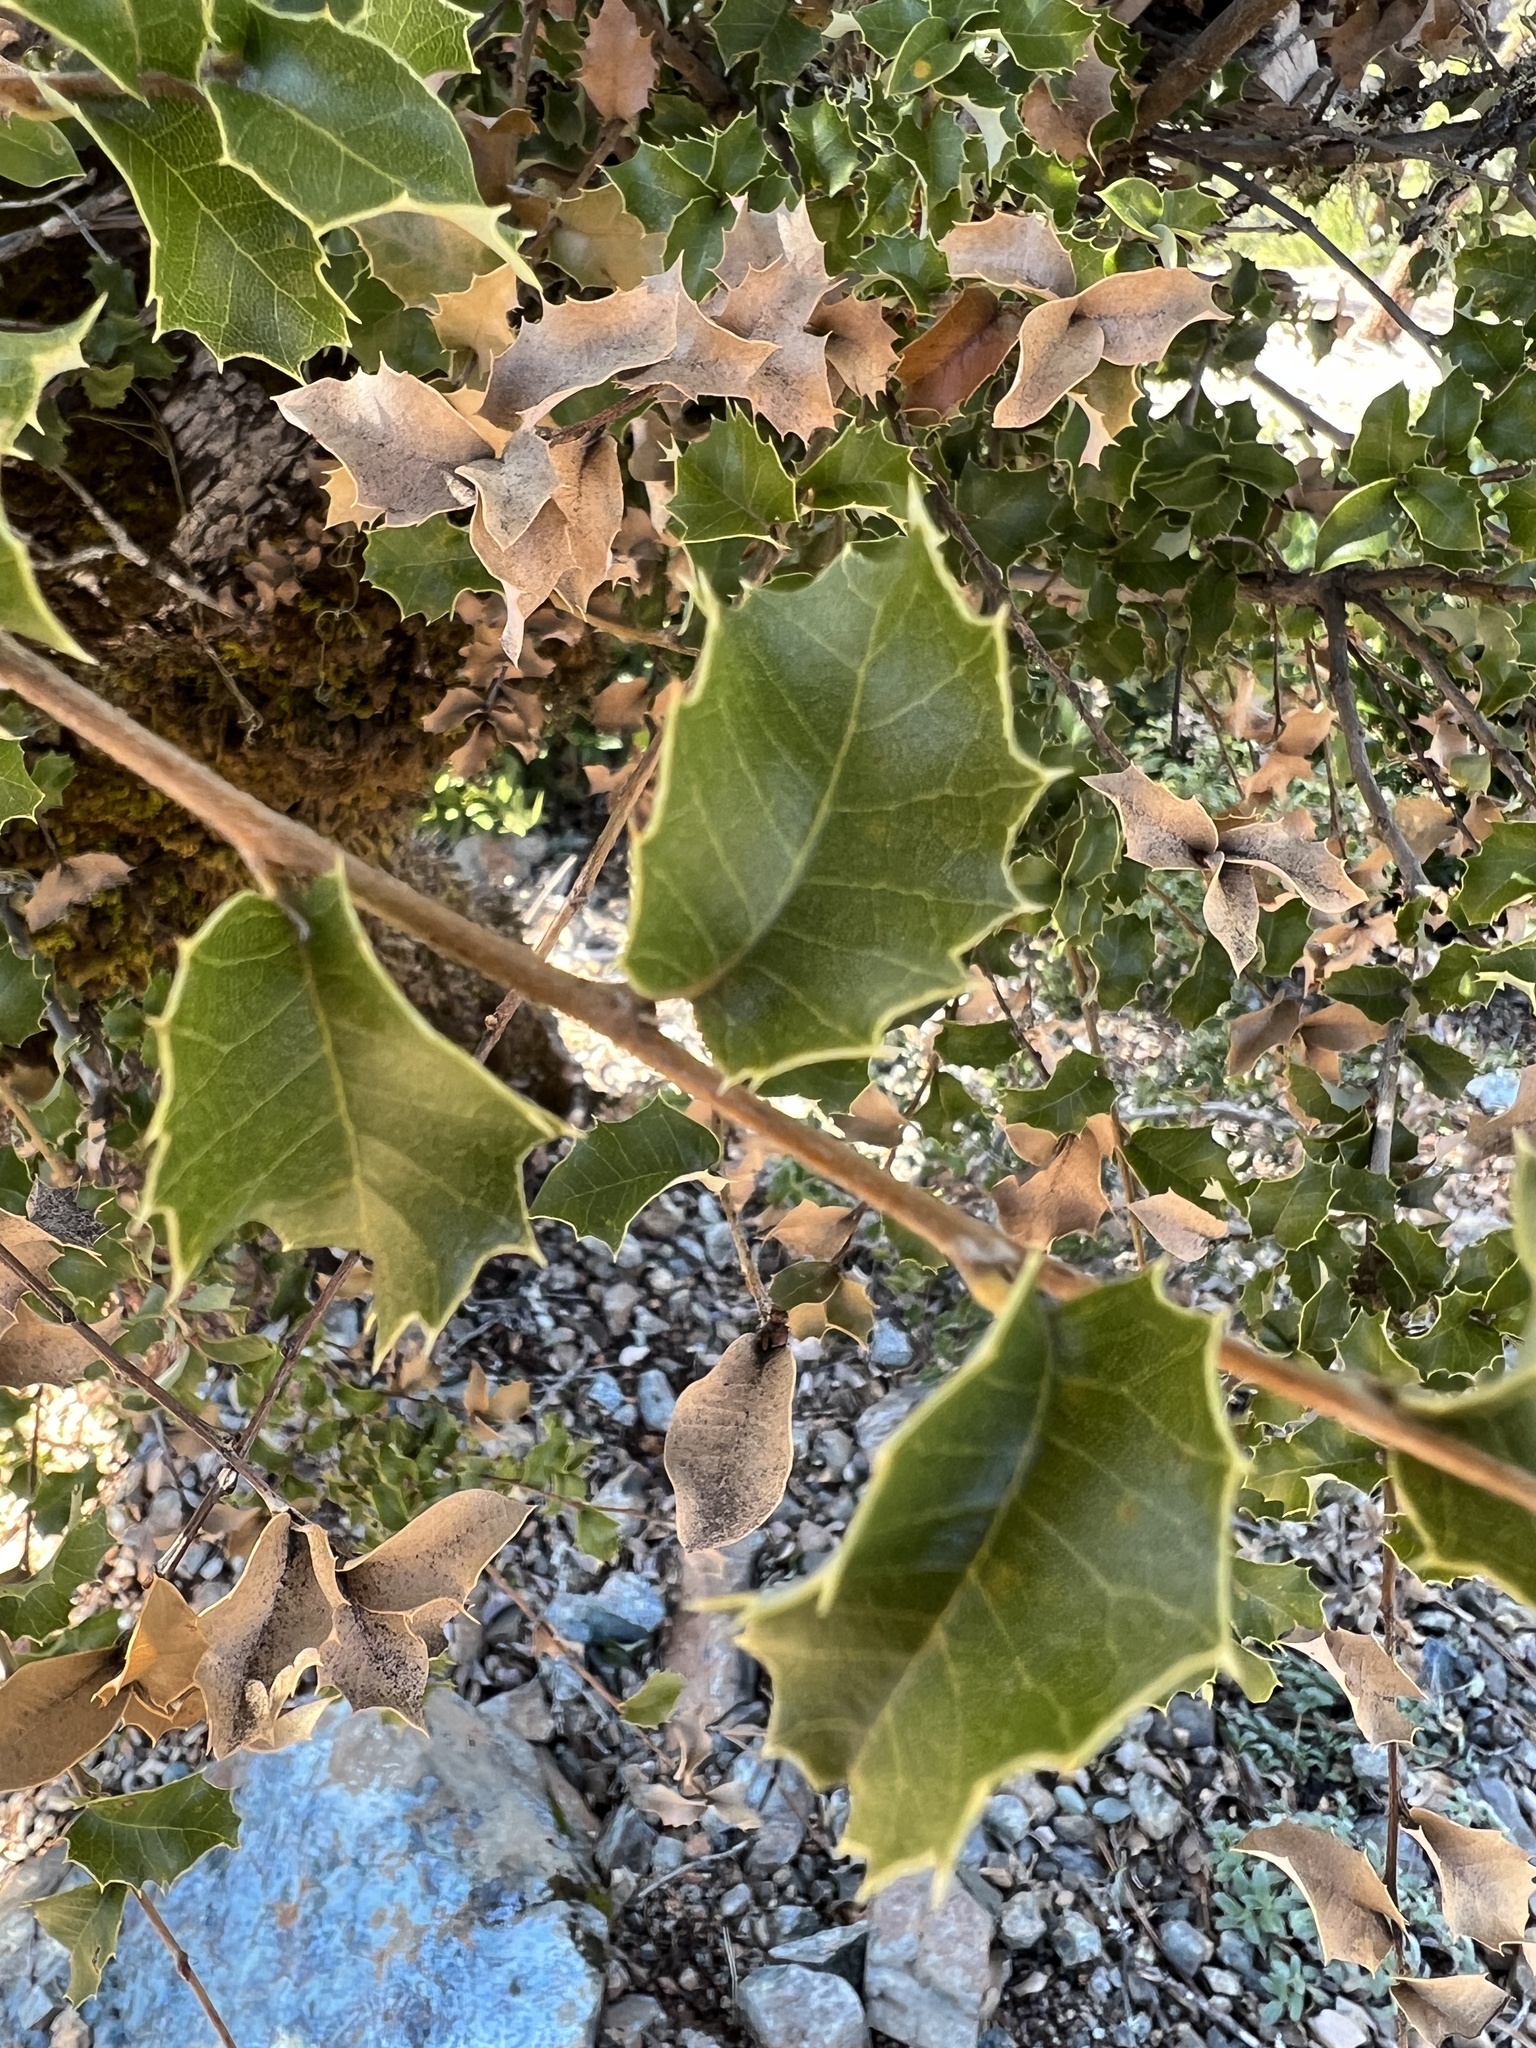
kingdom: Plantae
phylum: Tracheophyta
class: Magnoliopsida
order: Fagales
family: Fagaceae
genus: Quercus
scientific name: Quercus chrysolepis
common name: Canyon live oak
